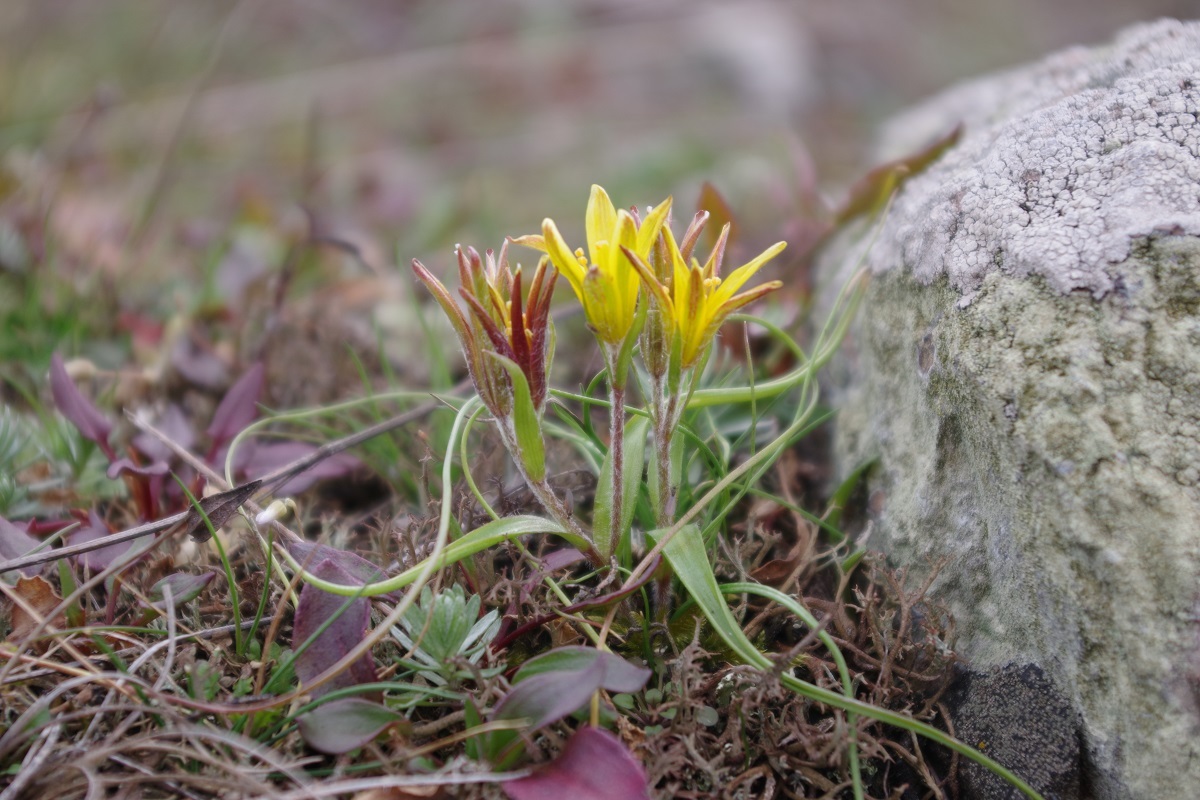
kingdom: Plantae
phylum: Tracheophyta
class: Liliopsida
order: Liliales
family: Liliaceae
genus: Gagea
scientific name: Gagea bohemica
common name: Early star-of-bethlehem
